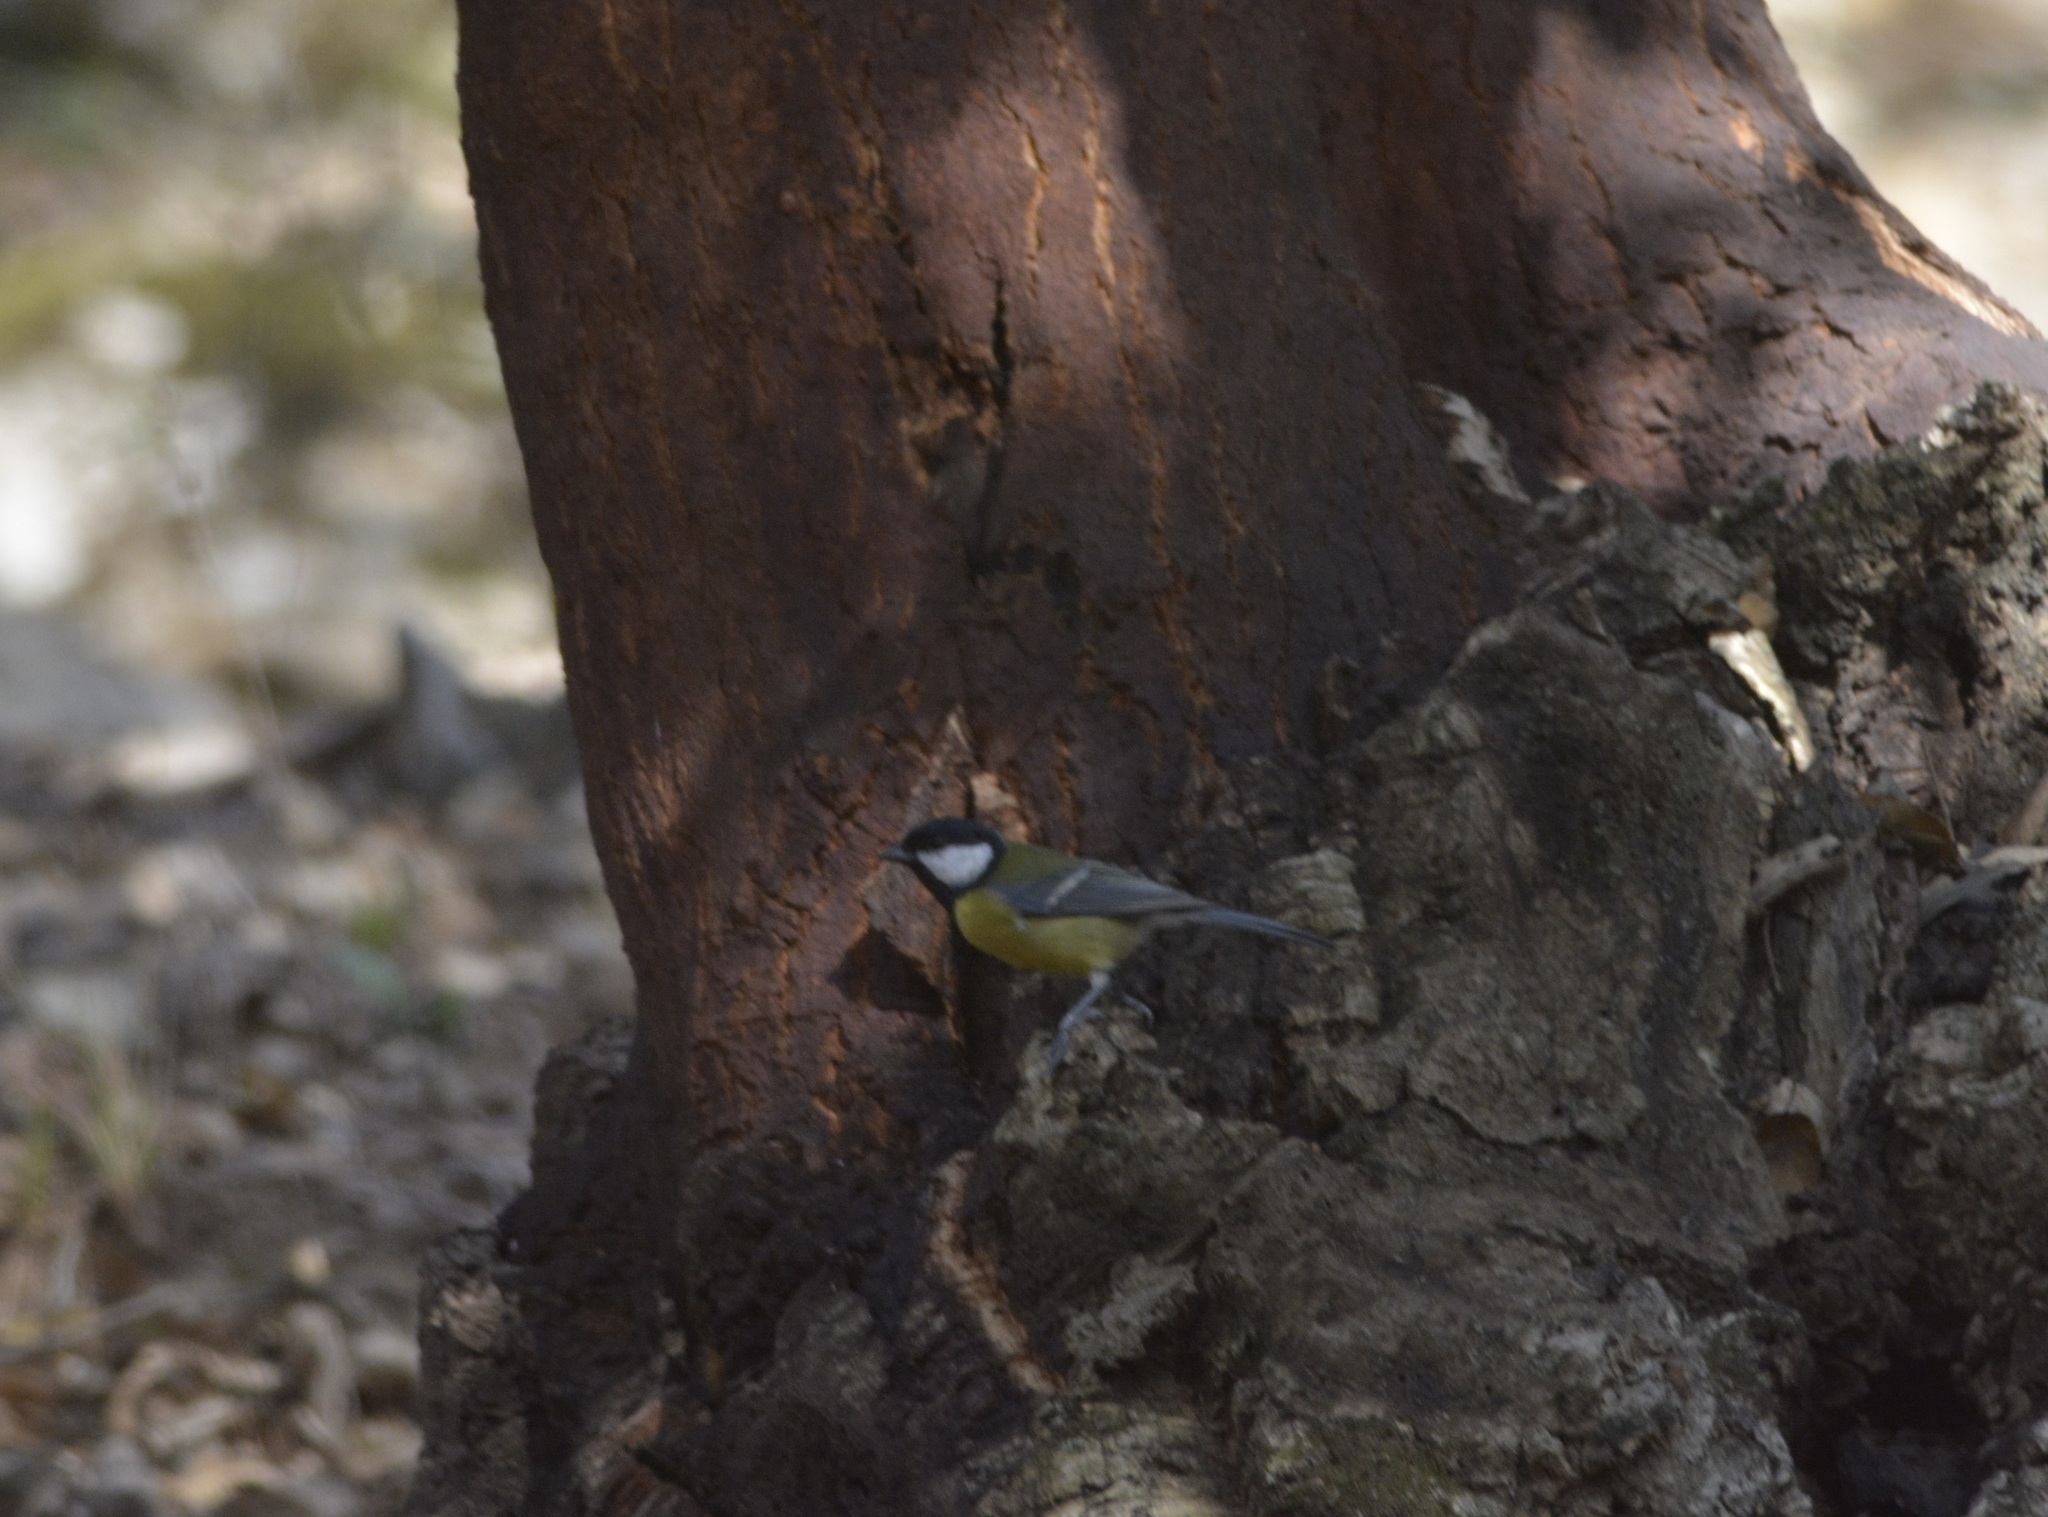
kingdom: Animalia
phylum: Chordata
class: Aves
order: Passeriformes
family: Paridae
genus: Parus
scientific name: Parus major
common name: Great tit
